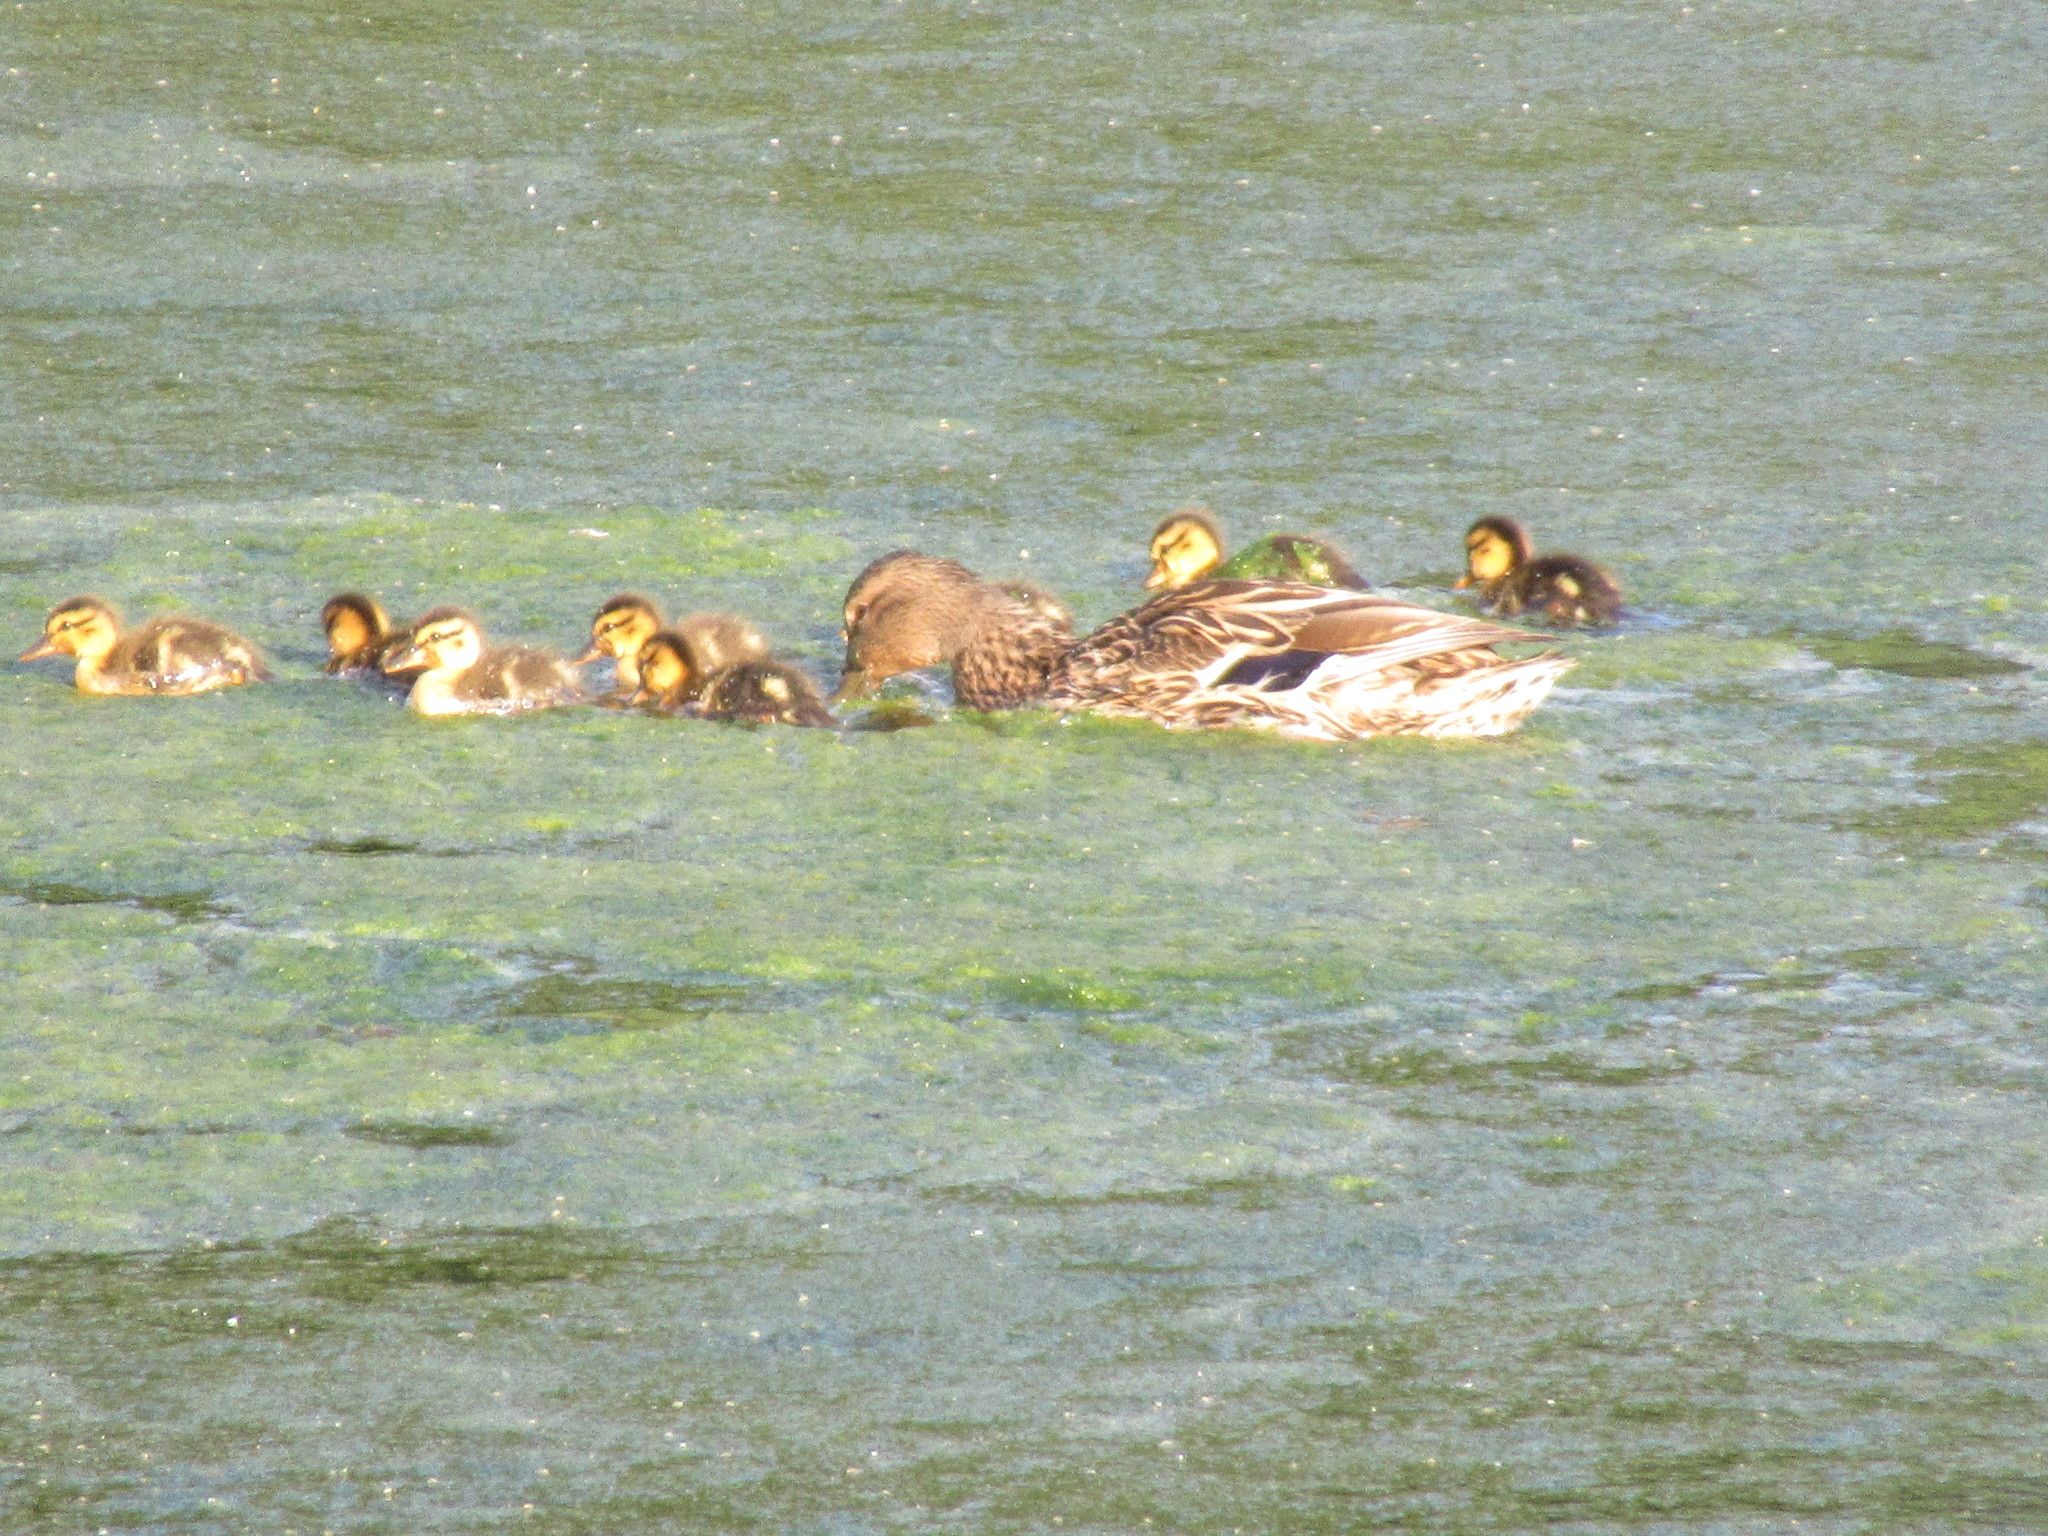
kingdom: Animalia
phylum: Chordata
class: Aves
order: Anseriformes
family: Anatidae
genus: Anas
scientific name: Anas platyrhynchos
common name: Mallard
